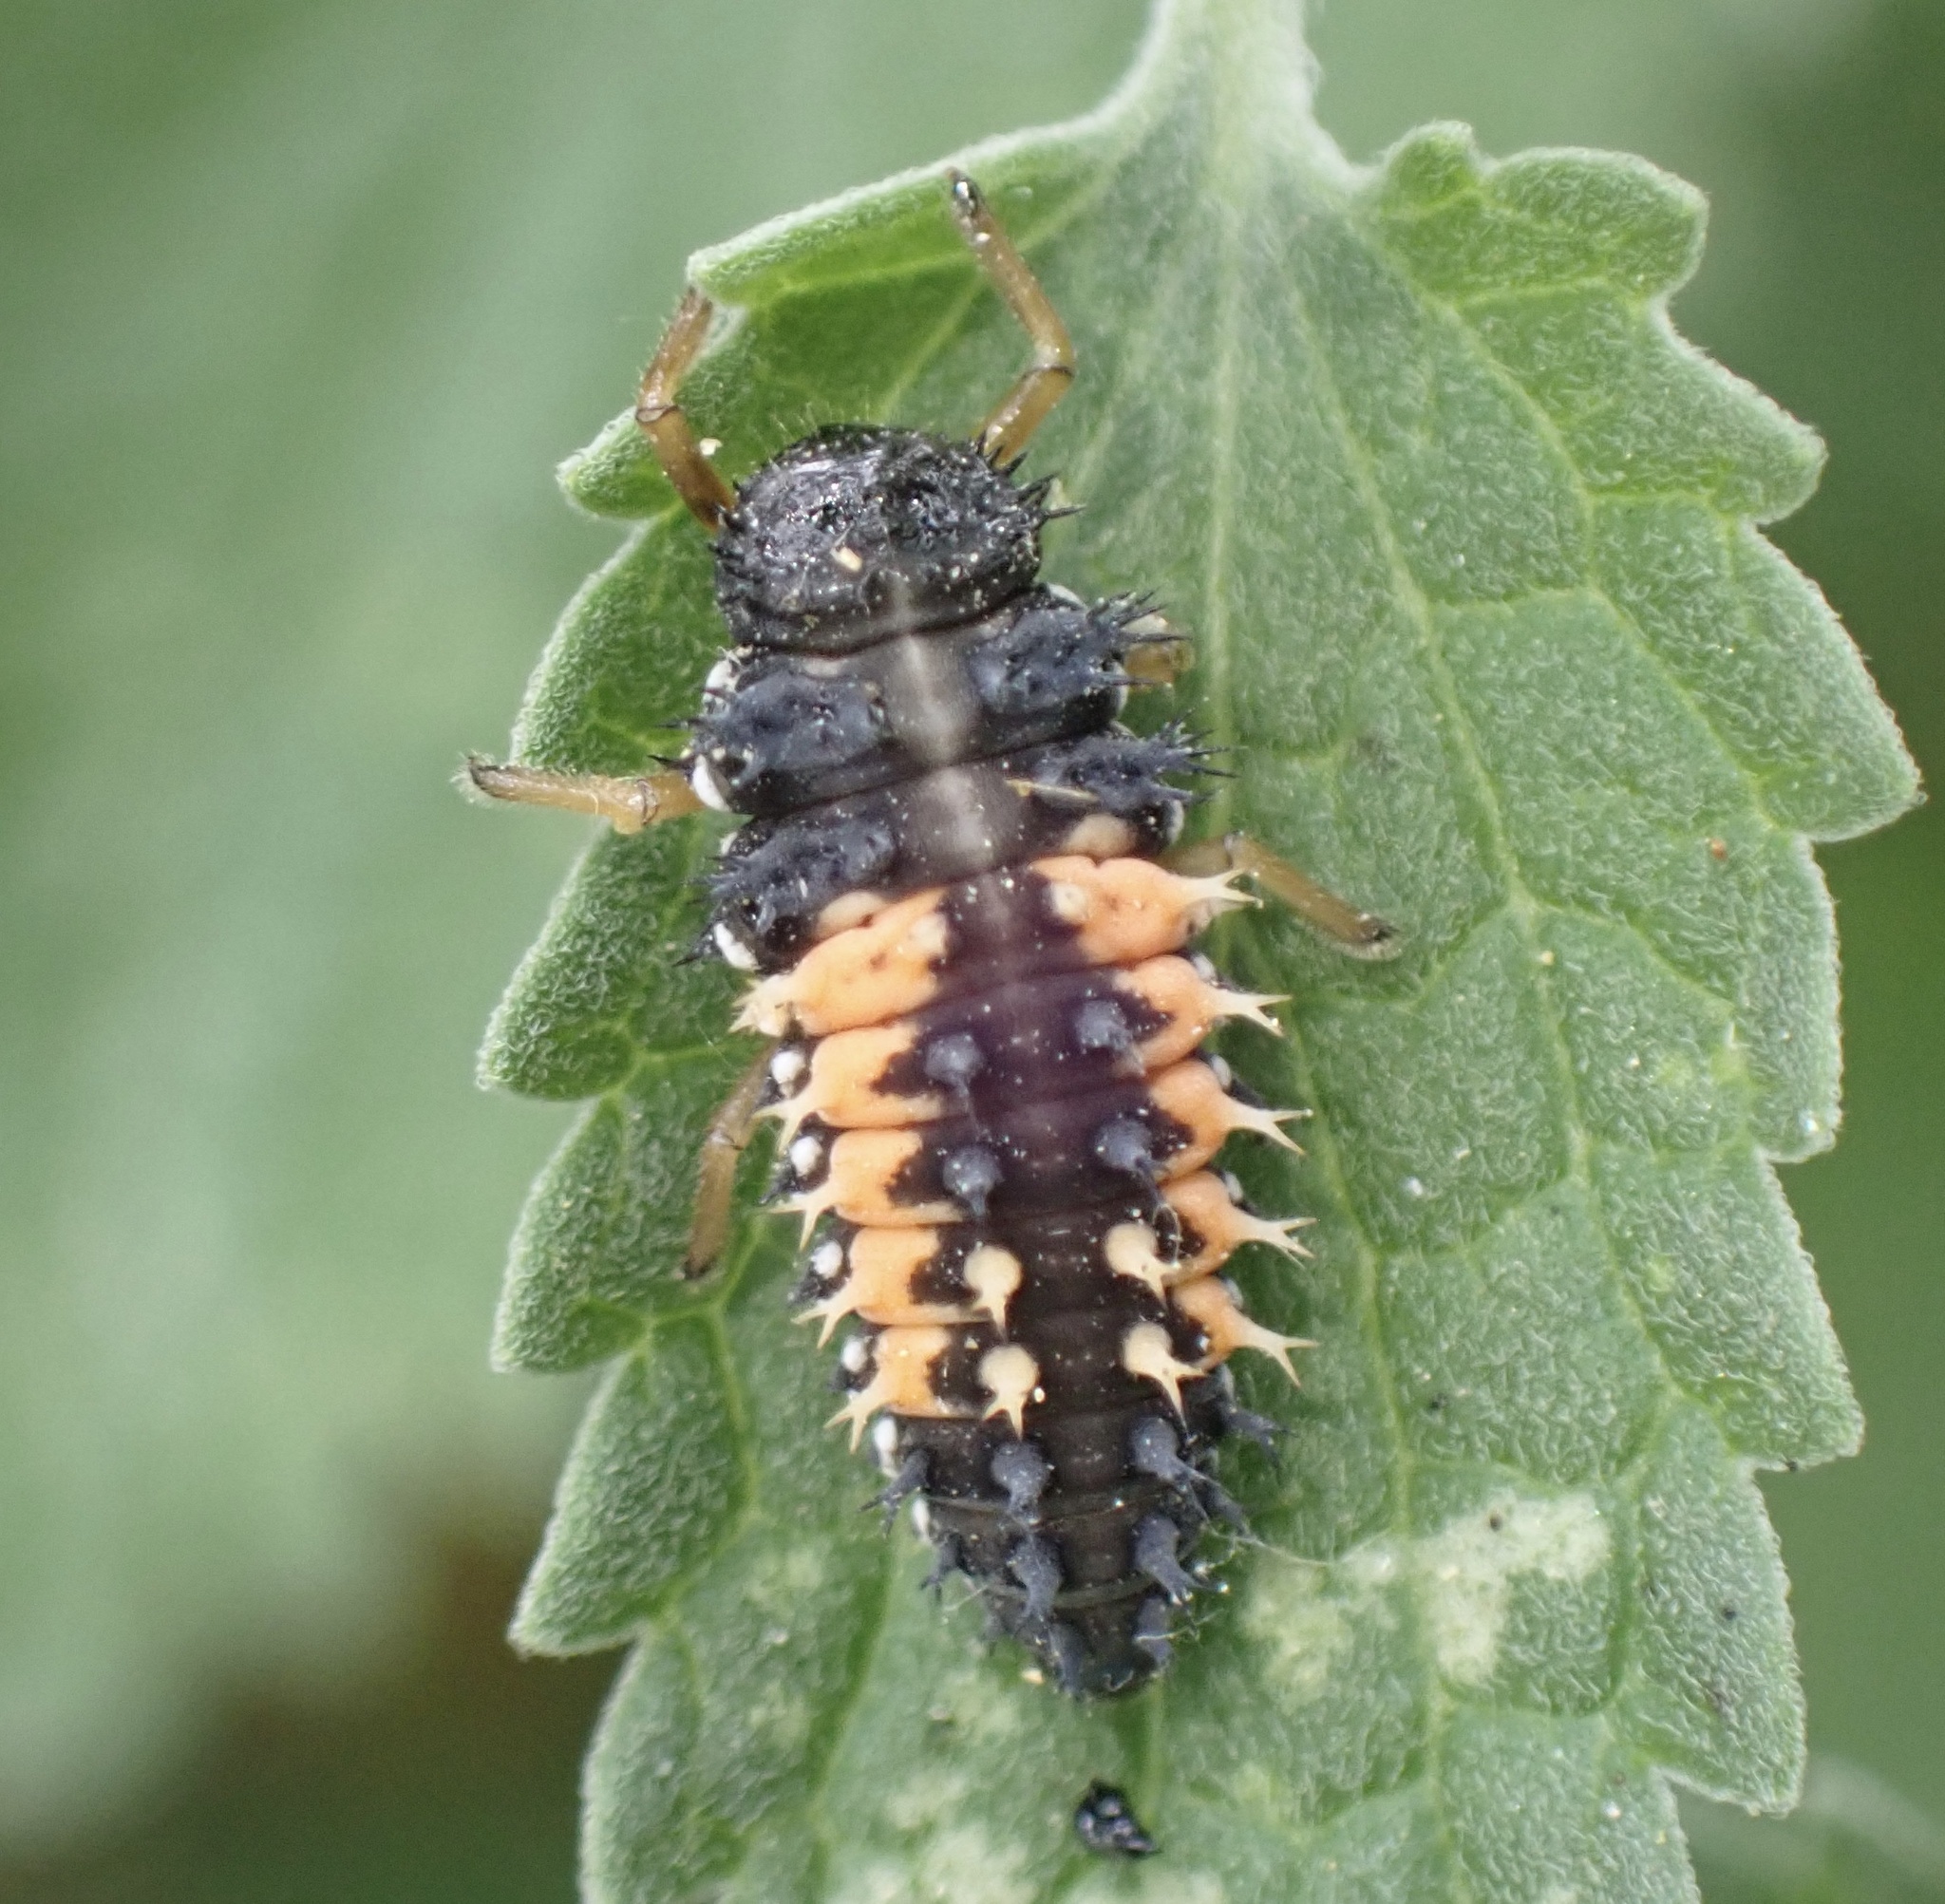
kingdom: Animalia
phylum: Arthropoda
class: Insecta
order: Coleoptera
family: Coccinellidae
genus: Harmonia
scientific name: Harmonia axyridis
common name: Harlequin ladybird
